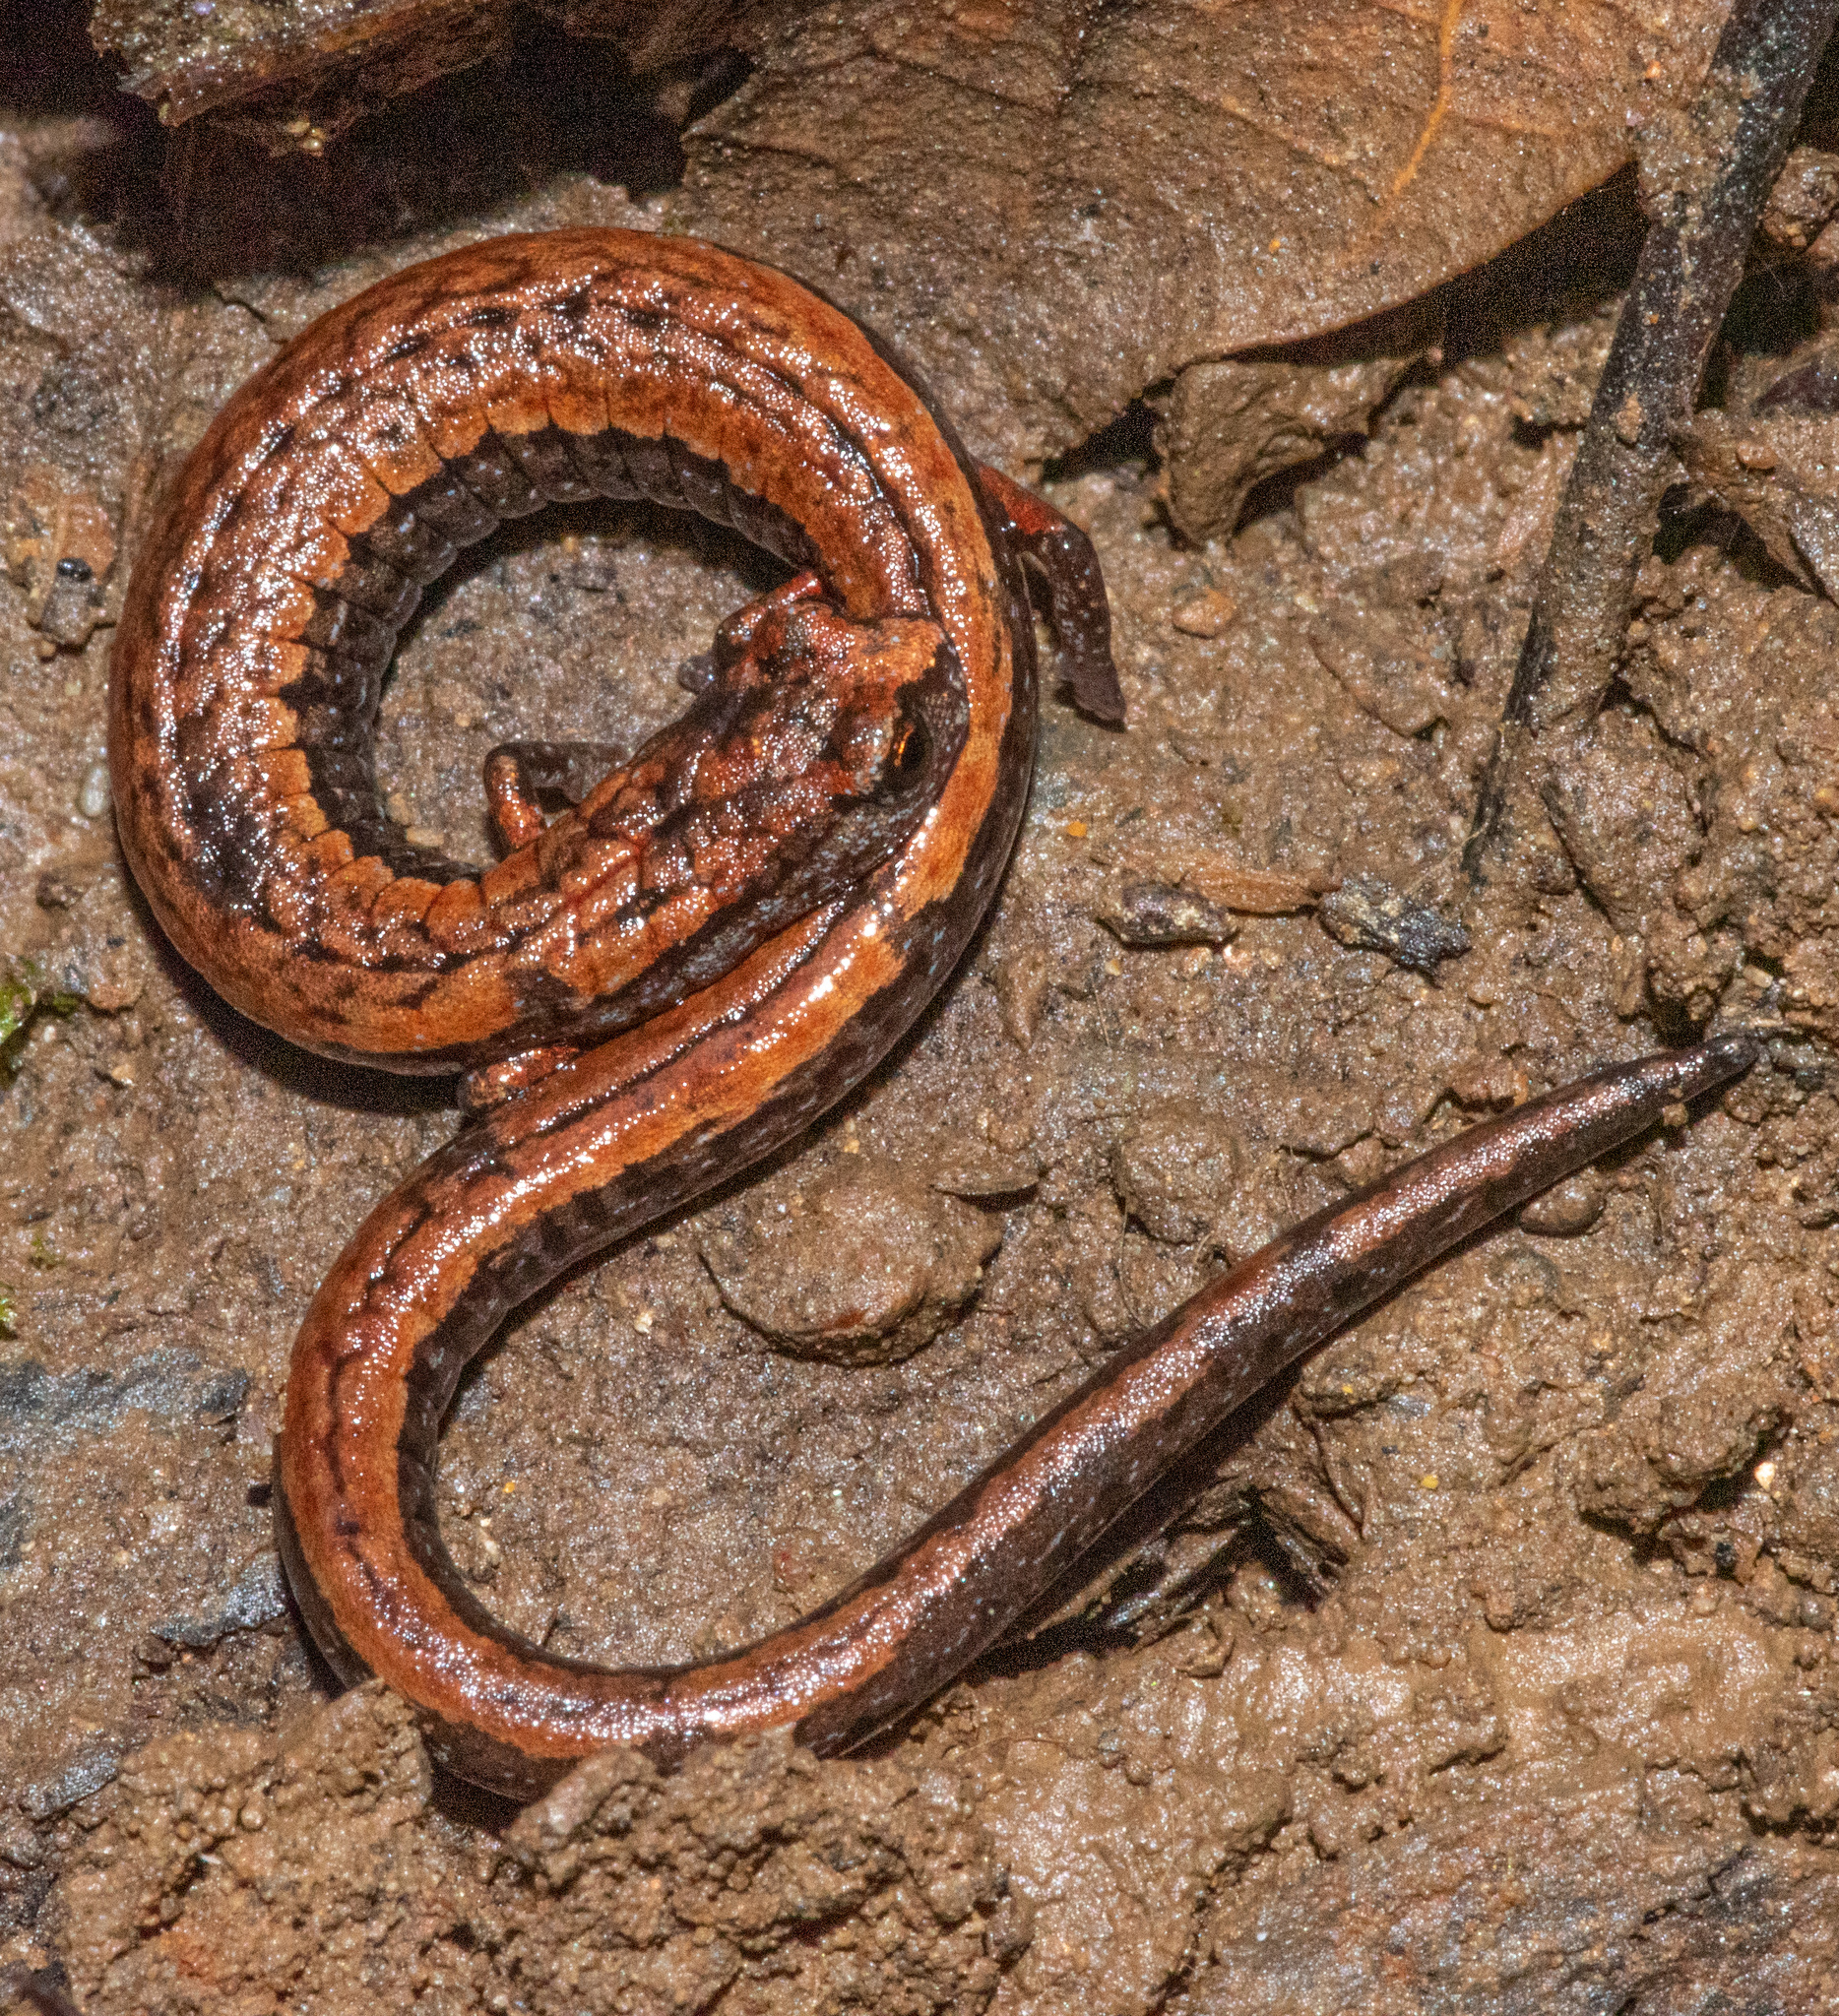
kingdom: Animalia
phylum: Chordata
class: Amphibia
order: Caudata
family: Plethodontidae
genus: Batrachoseps
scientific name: Batrachoseps attenuatus
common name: California slender salamander
